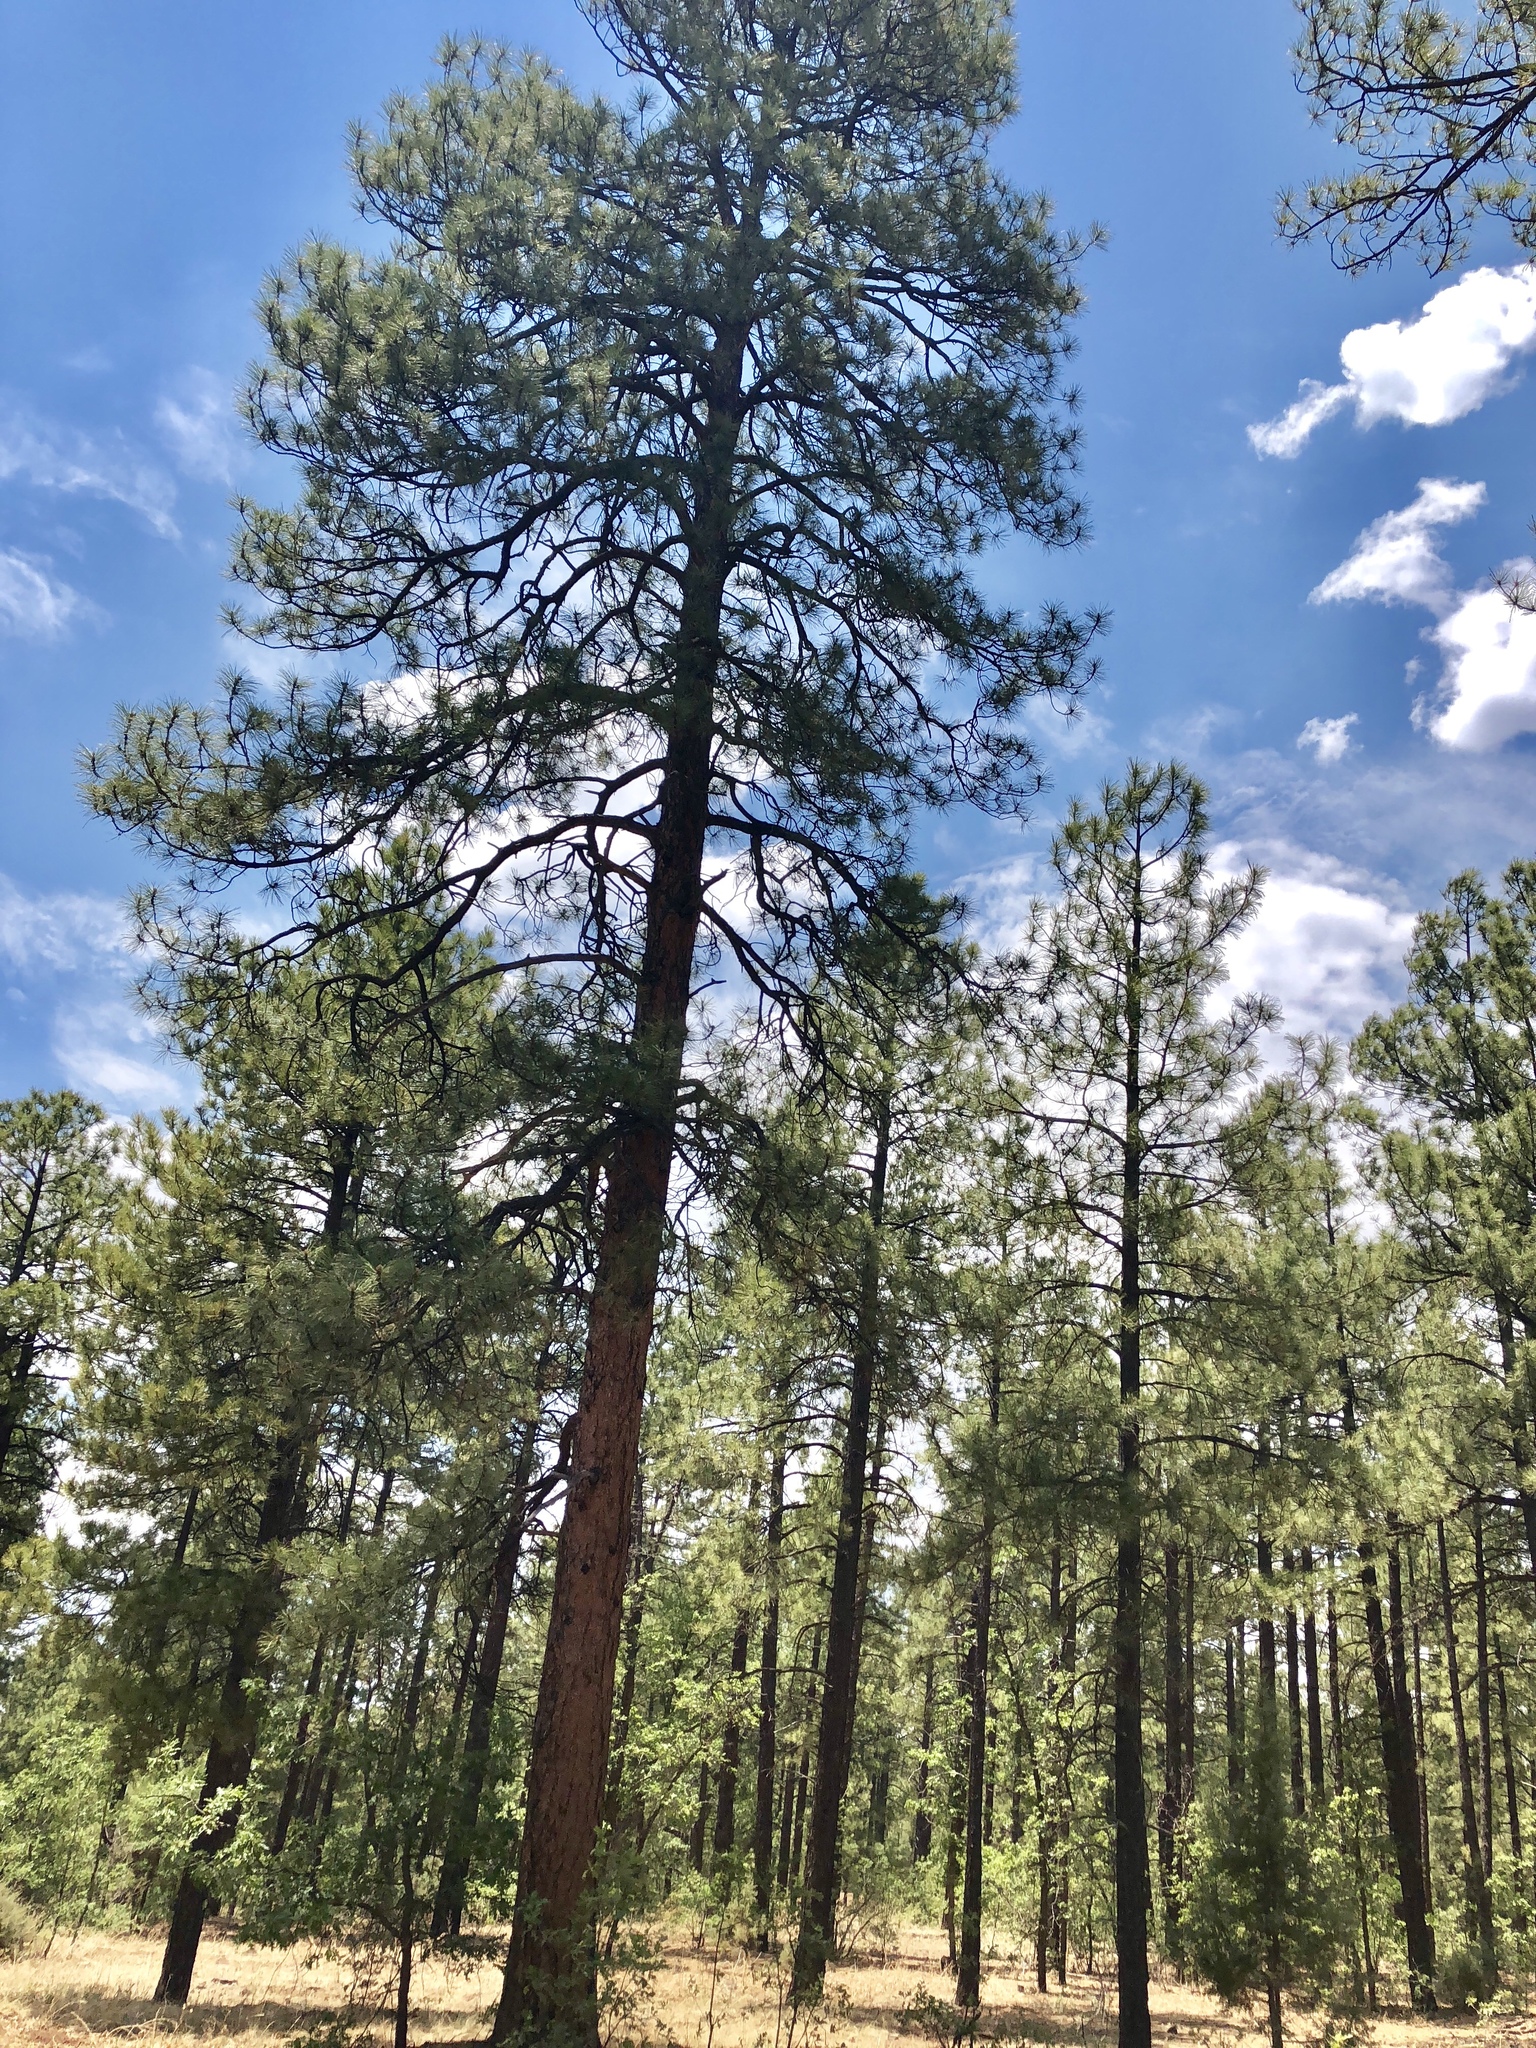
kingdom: Plantae
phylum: Tracheophyta
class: Pinopsida
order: Pinales
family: Pinaceae
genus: Pinus
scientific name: Pinus ponderosa
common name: Western yellow-pine
